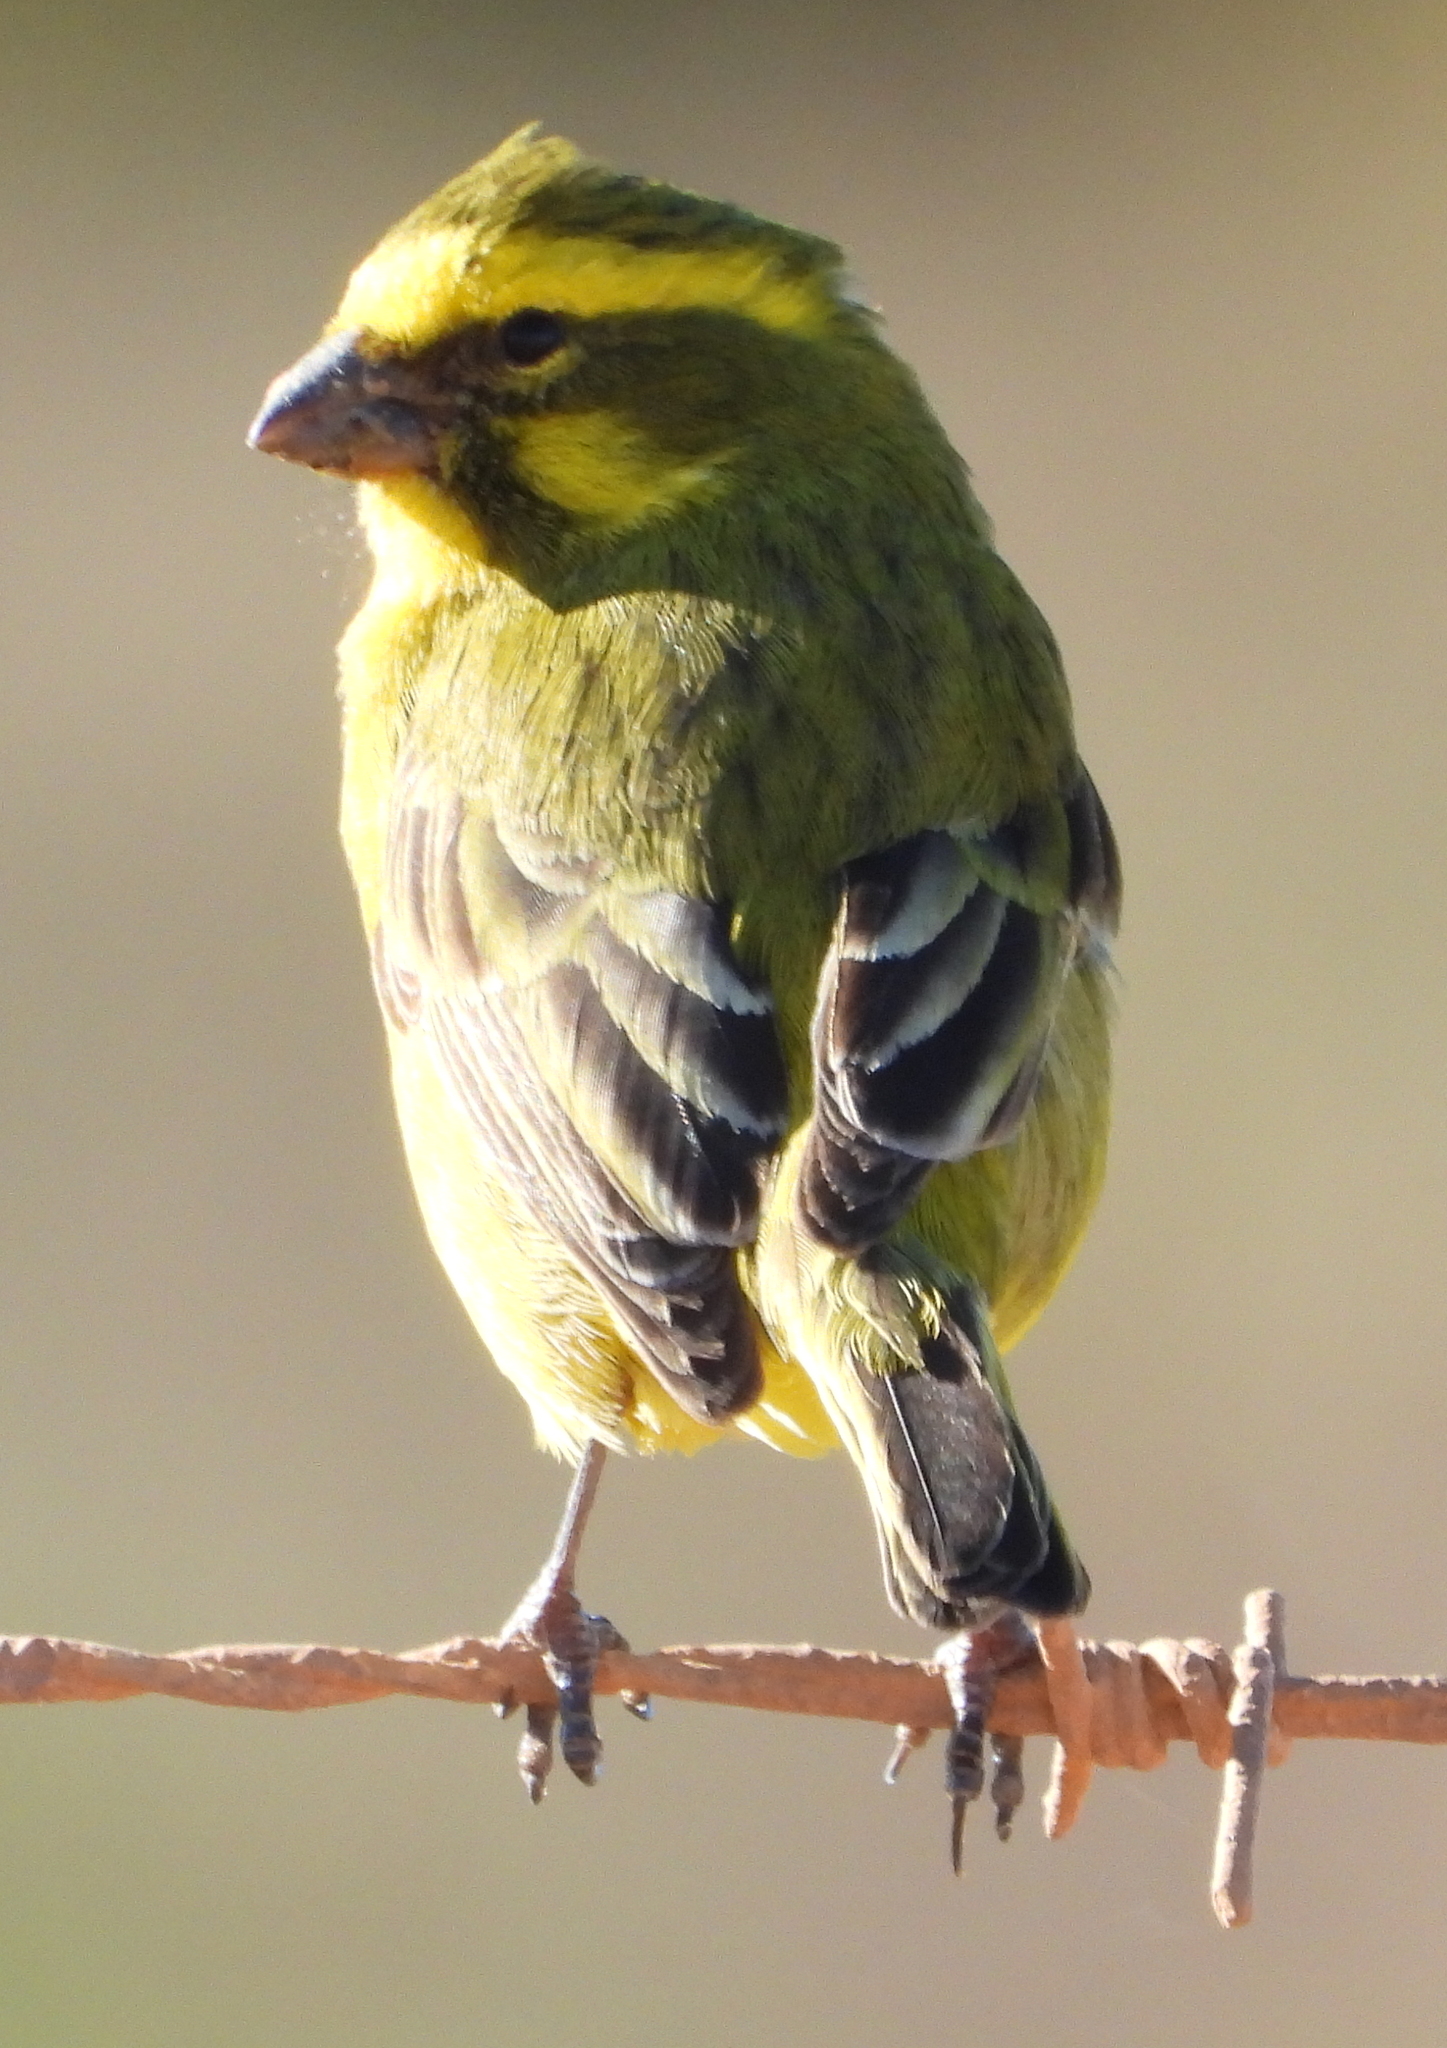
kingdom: Animalia
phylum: Chordata
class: Aves
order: Passeriformes
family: Fringillidae
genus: Crithagra
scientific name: Crithagra flaviventris
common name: Yellow canary
